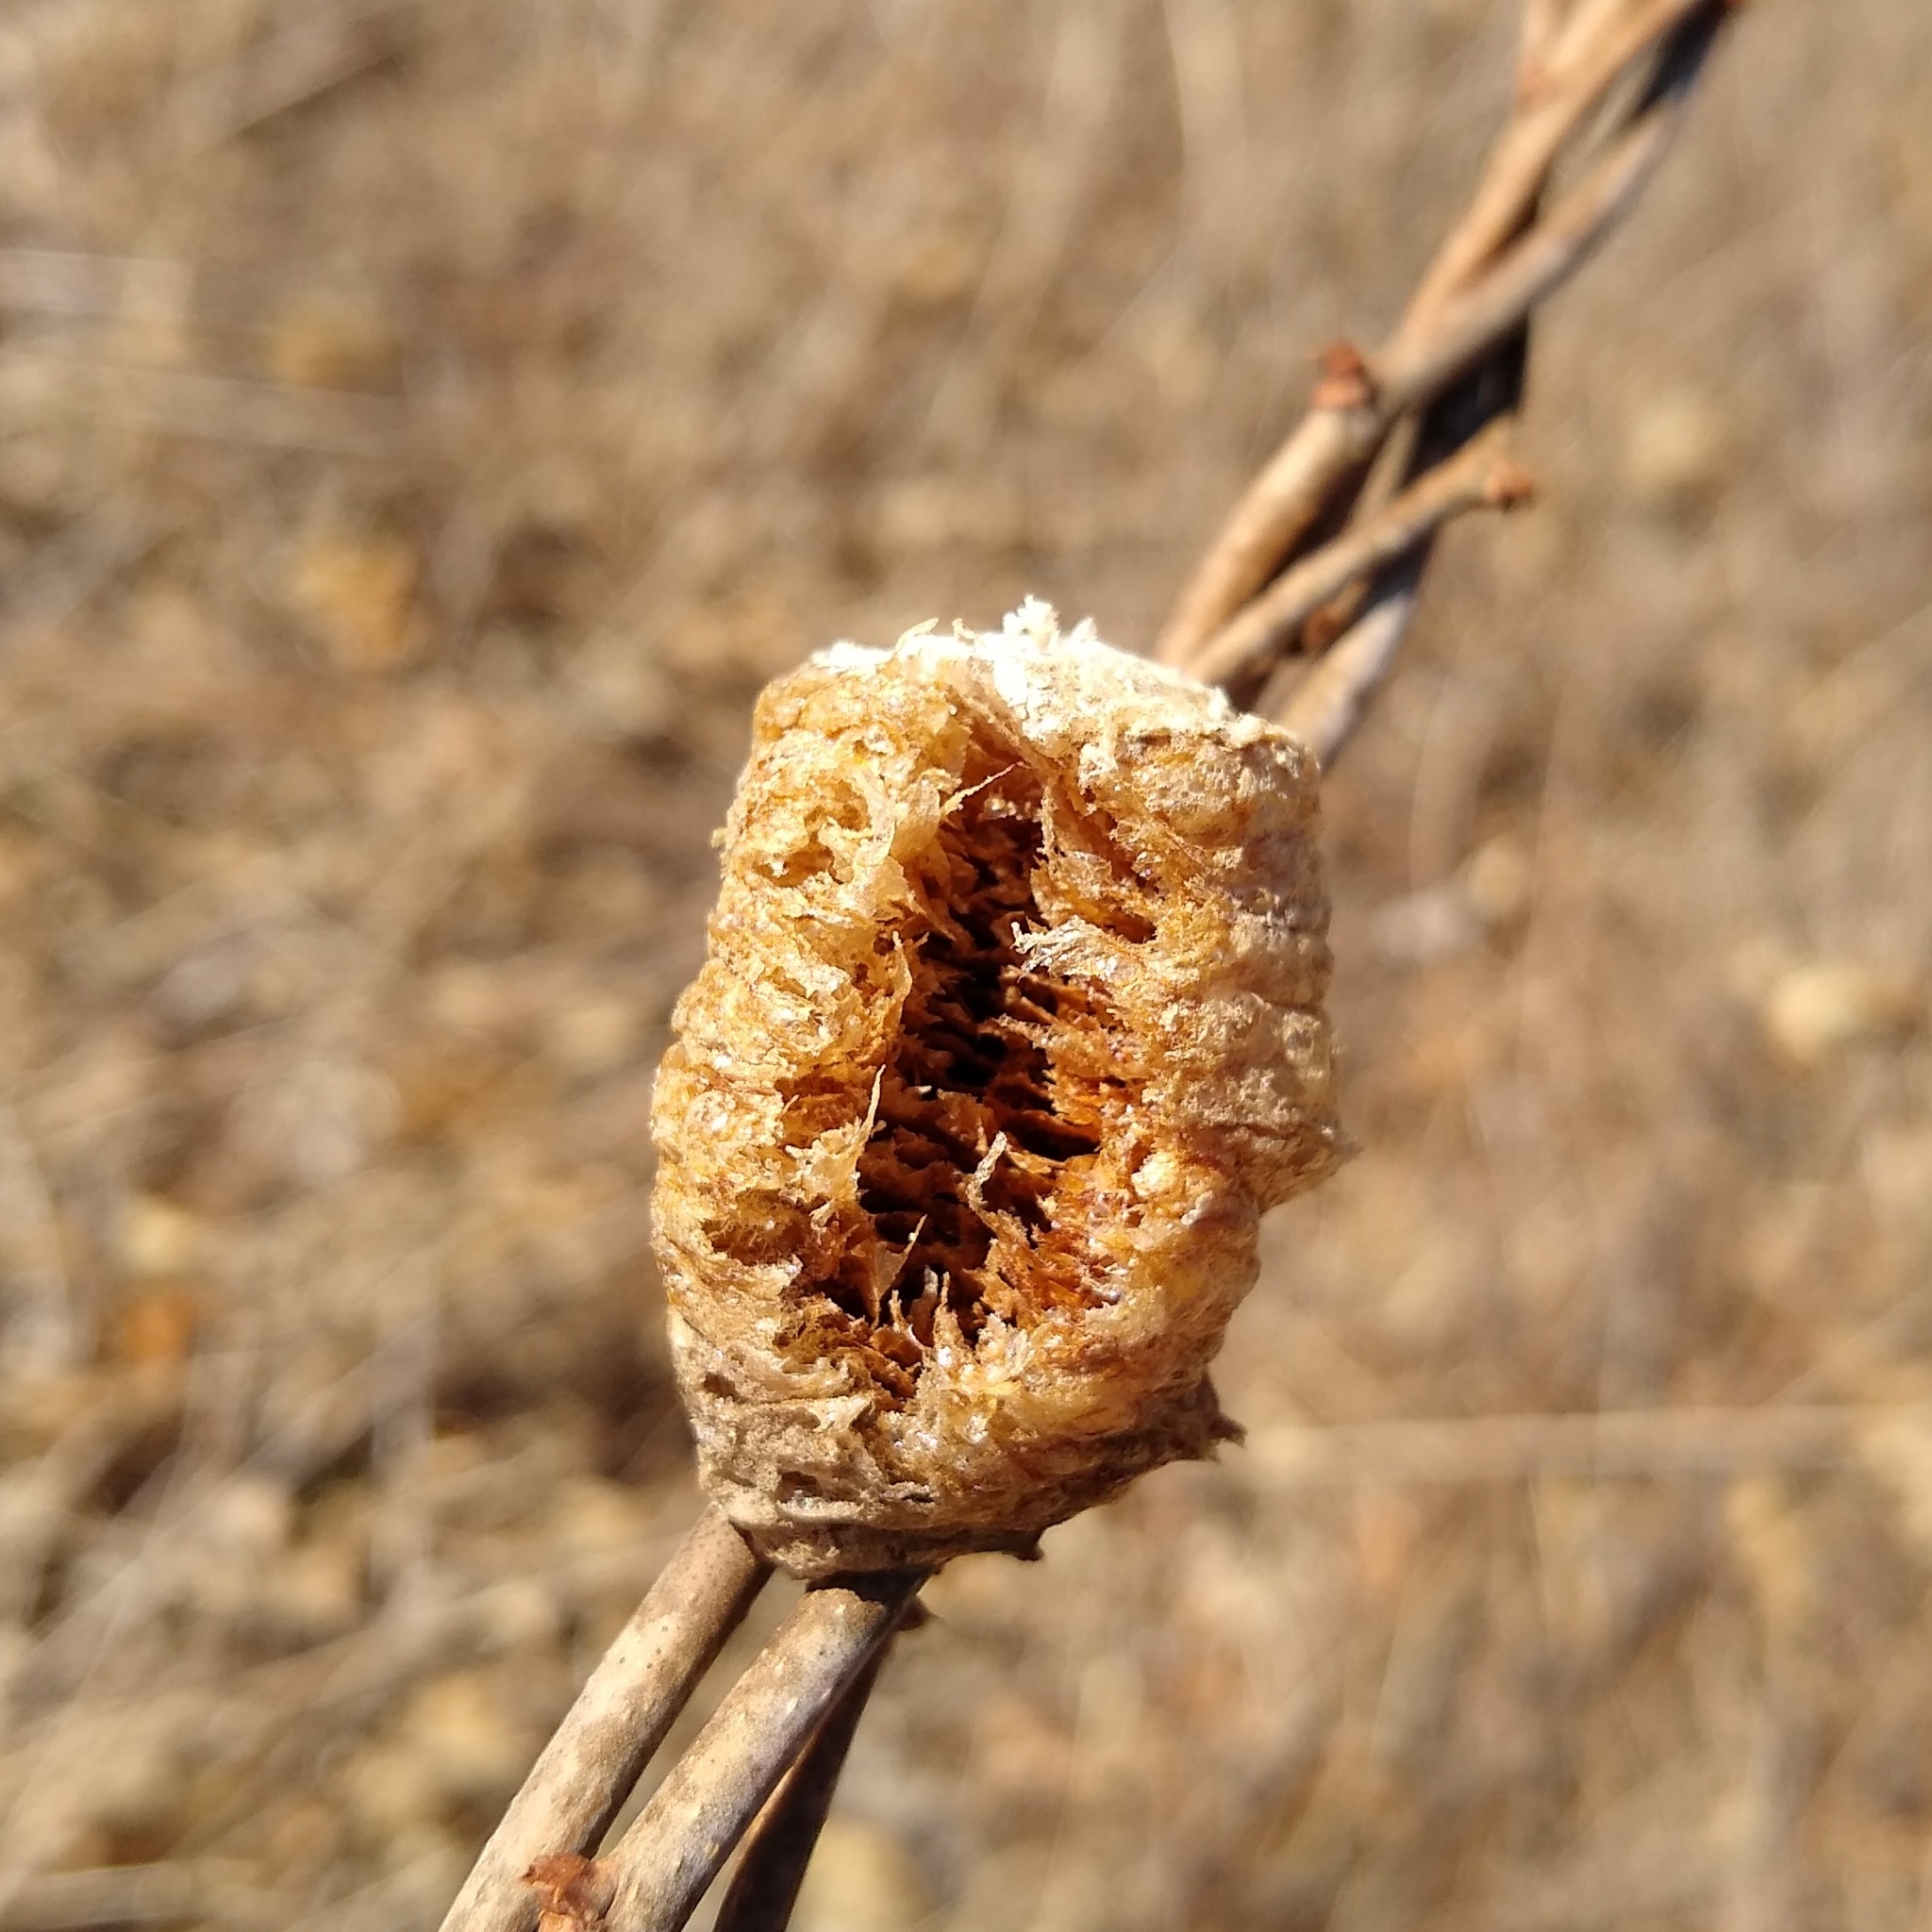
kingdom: Animalia
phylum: Arthropoda
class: Insecta
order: Mantodea
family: Mantidae
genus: Tenodera
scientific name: Tenodera sinensis
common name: Chinese mantis
